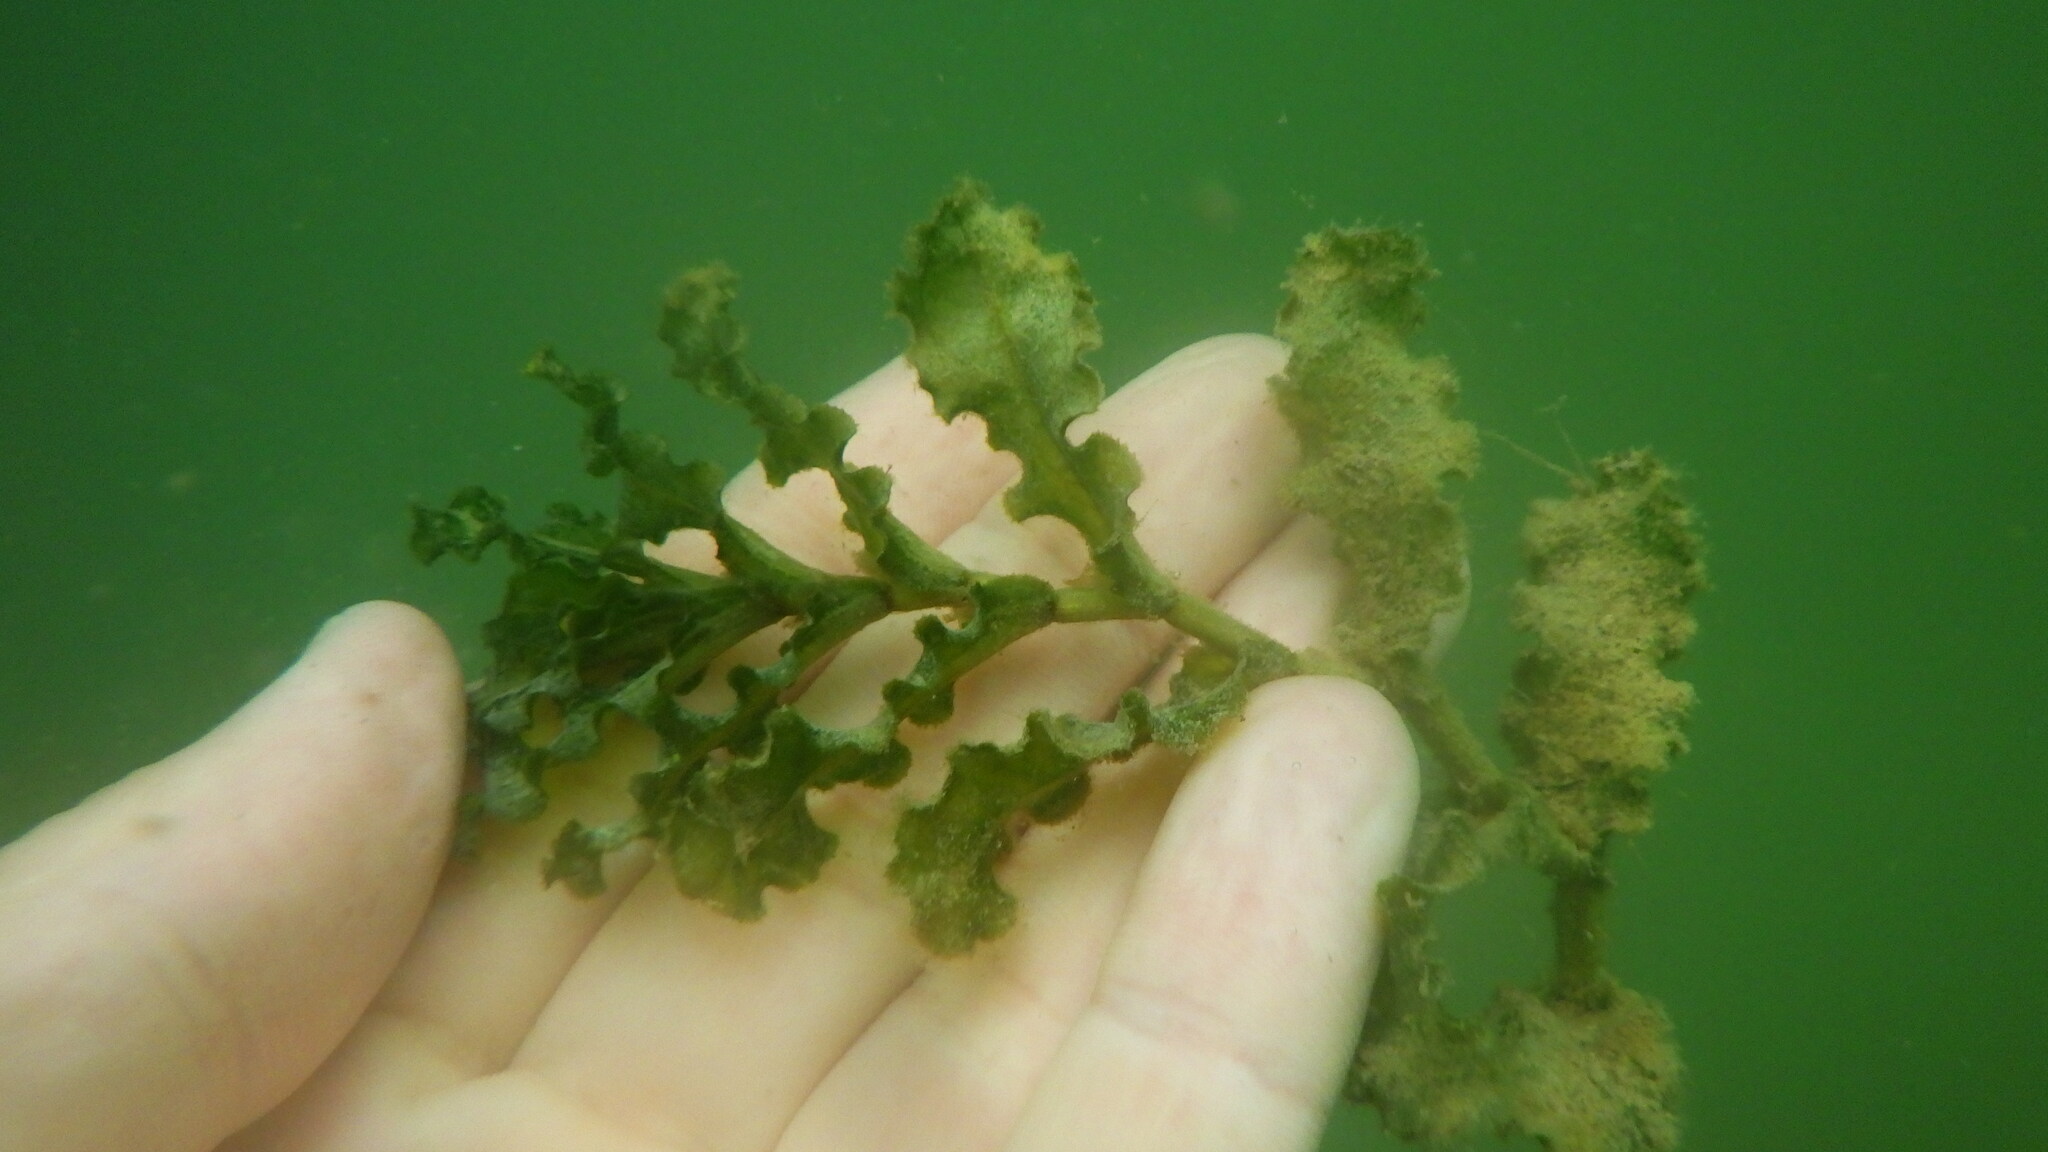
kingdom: Plantae
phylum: Tracheophyta
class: Liliopsida
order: Alismatales
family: Potamogetonaceae
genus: Potamogeton
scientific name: Potamogeton crispus
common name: Curled pondweed
